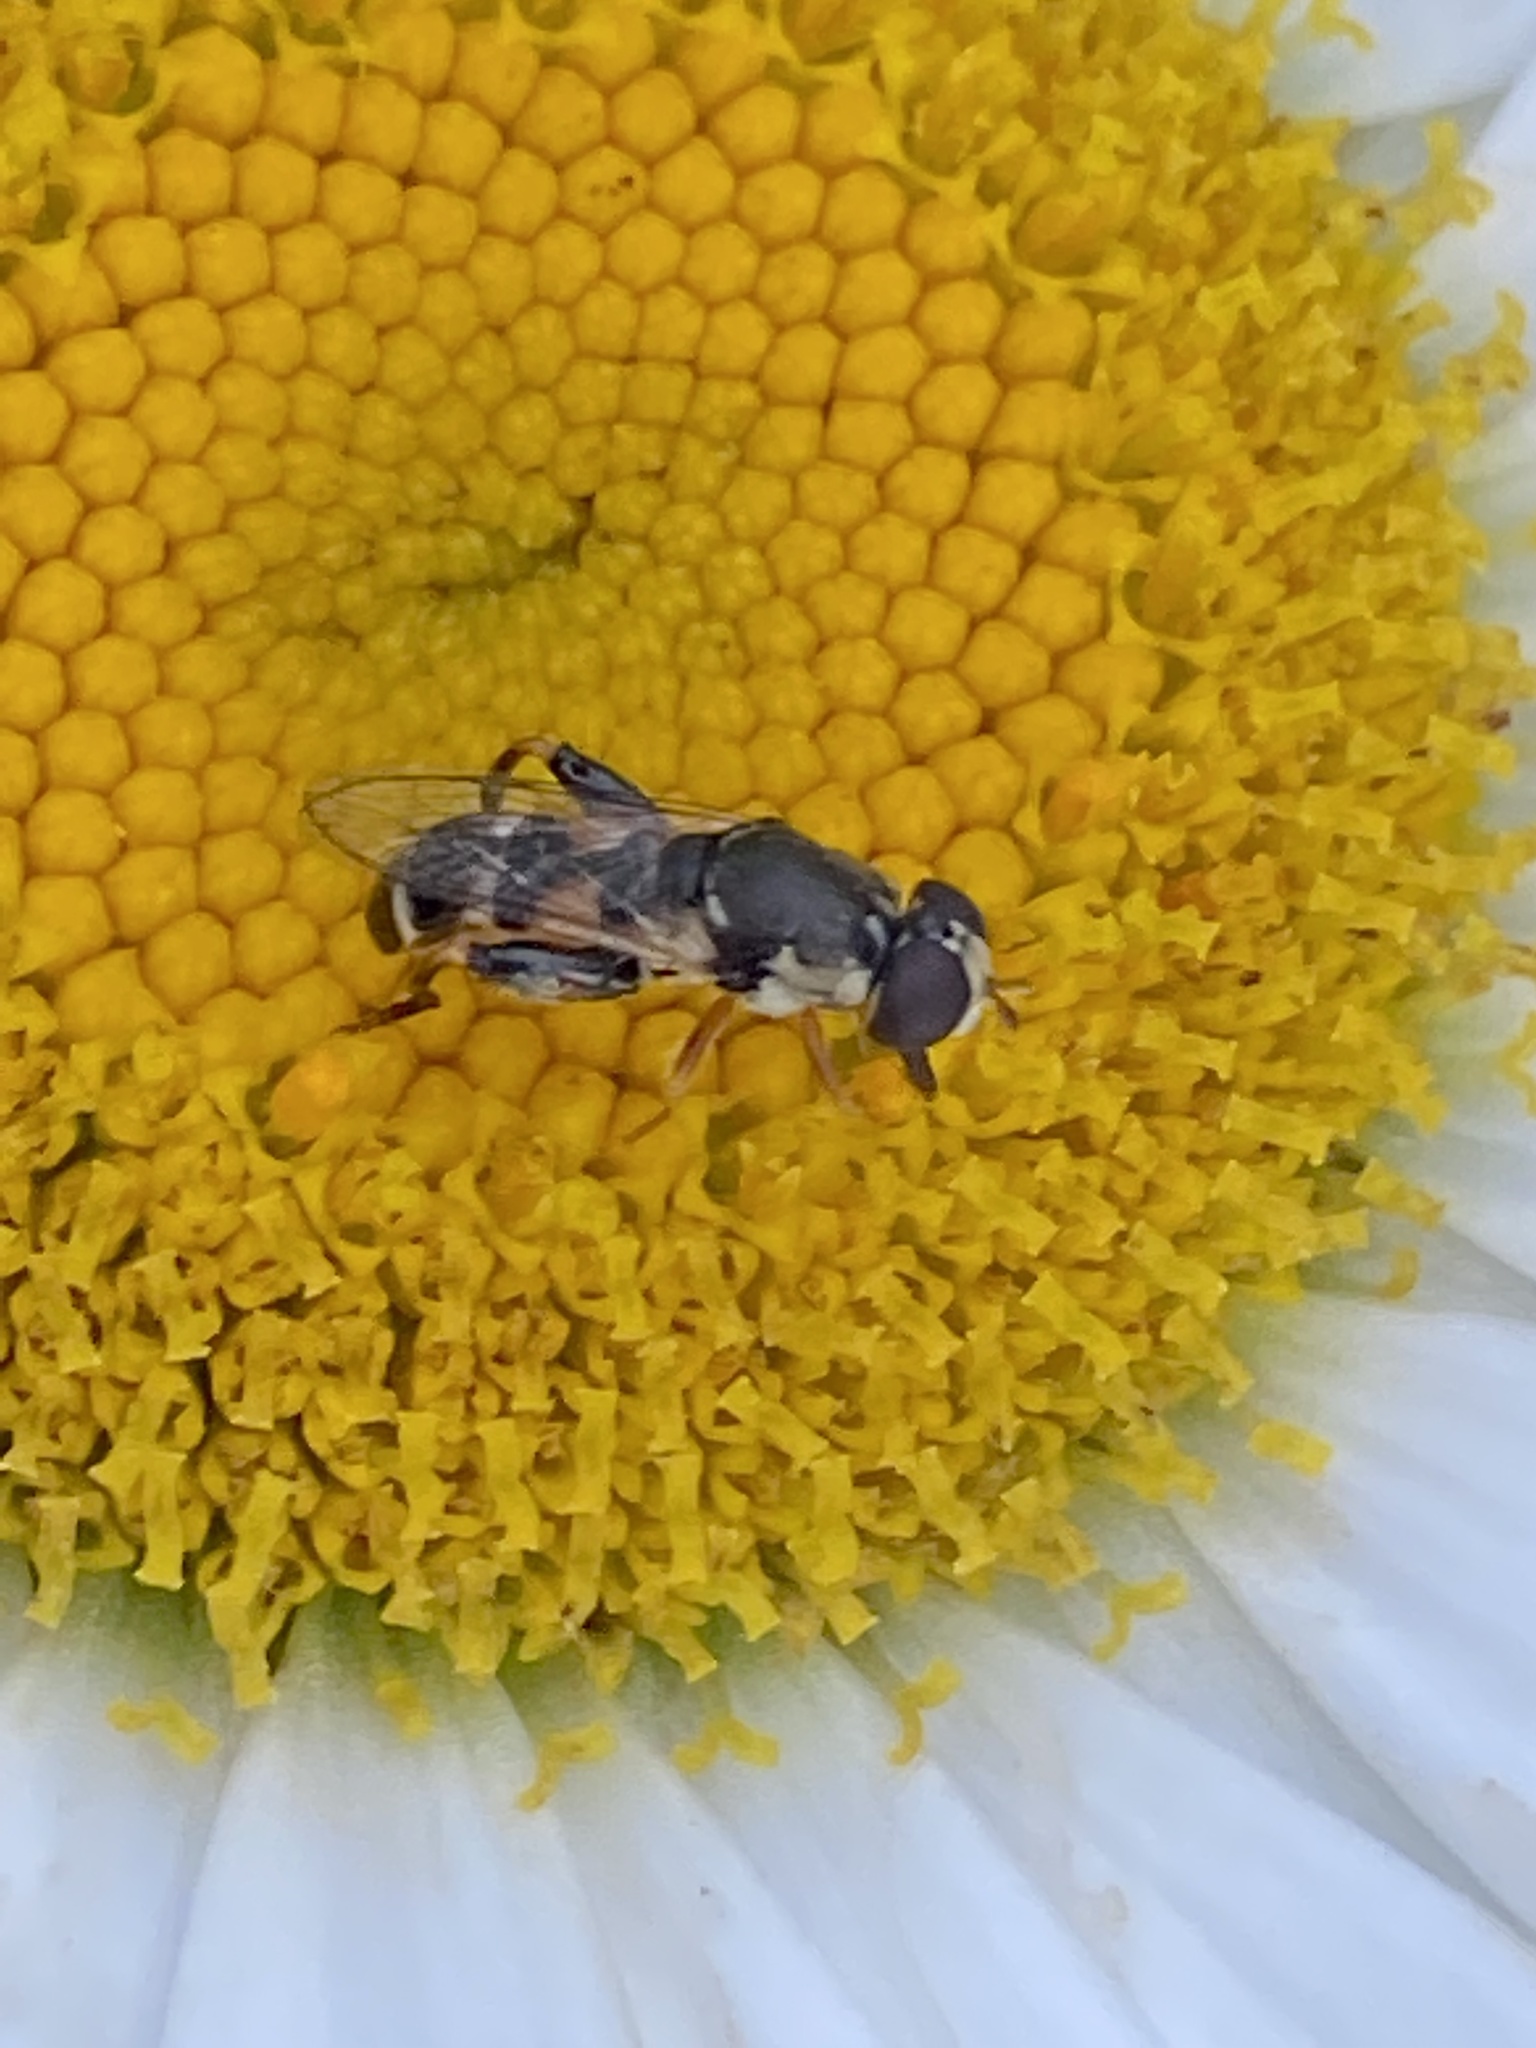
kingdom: Animalia
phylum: Arthropoda
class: Insecta
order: Diptera
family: Syrphidae
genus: Syritta
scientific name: Syritta pipiens
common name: Hover fly
